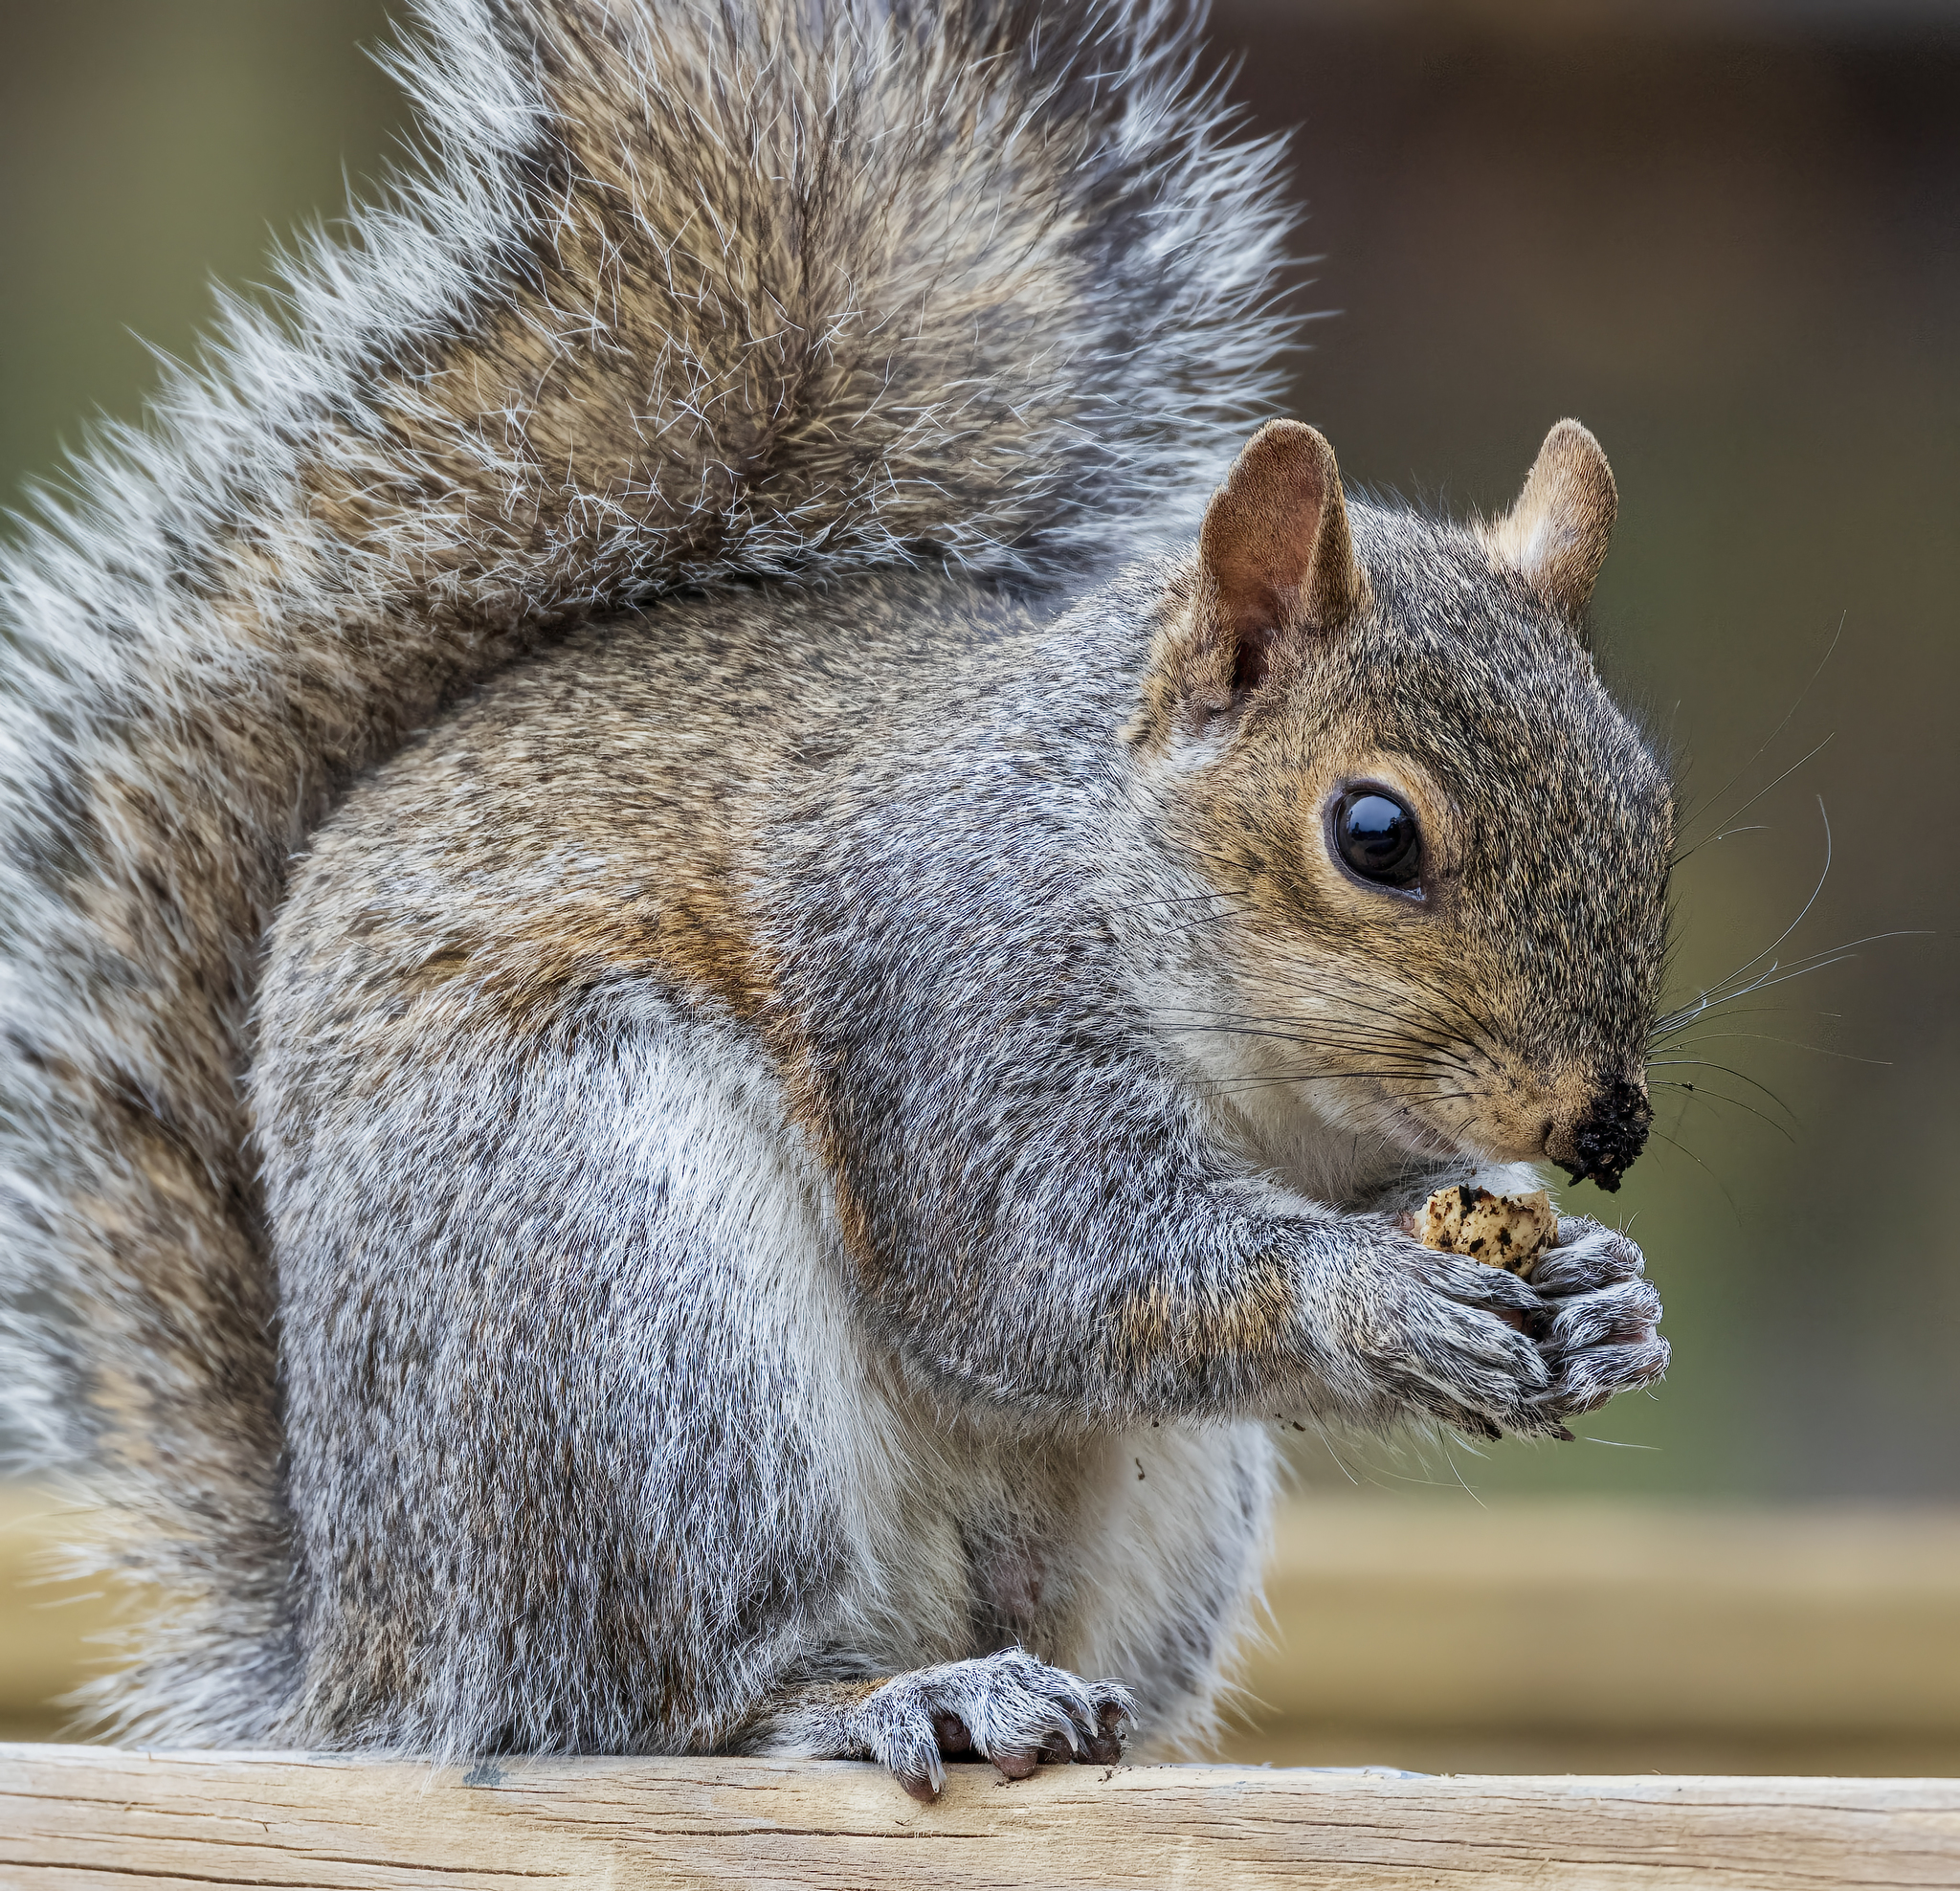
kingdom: Animalia
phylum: Chordata
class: Mammalia
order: Rodentia
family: Sciuridae
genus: Sciurus
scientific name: Sciurus carolinensis
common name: Eastern gray squirrel
